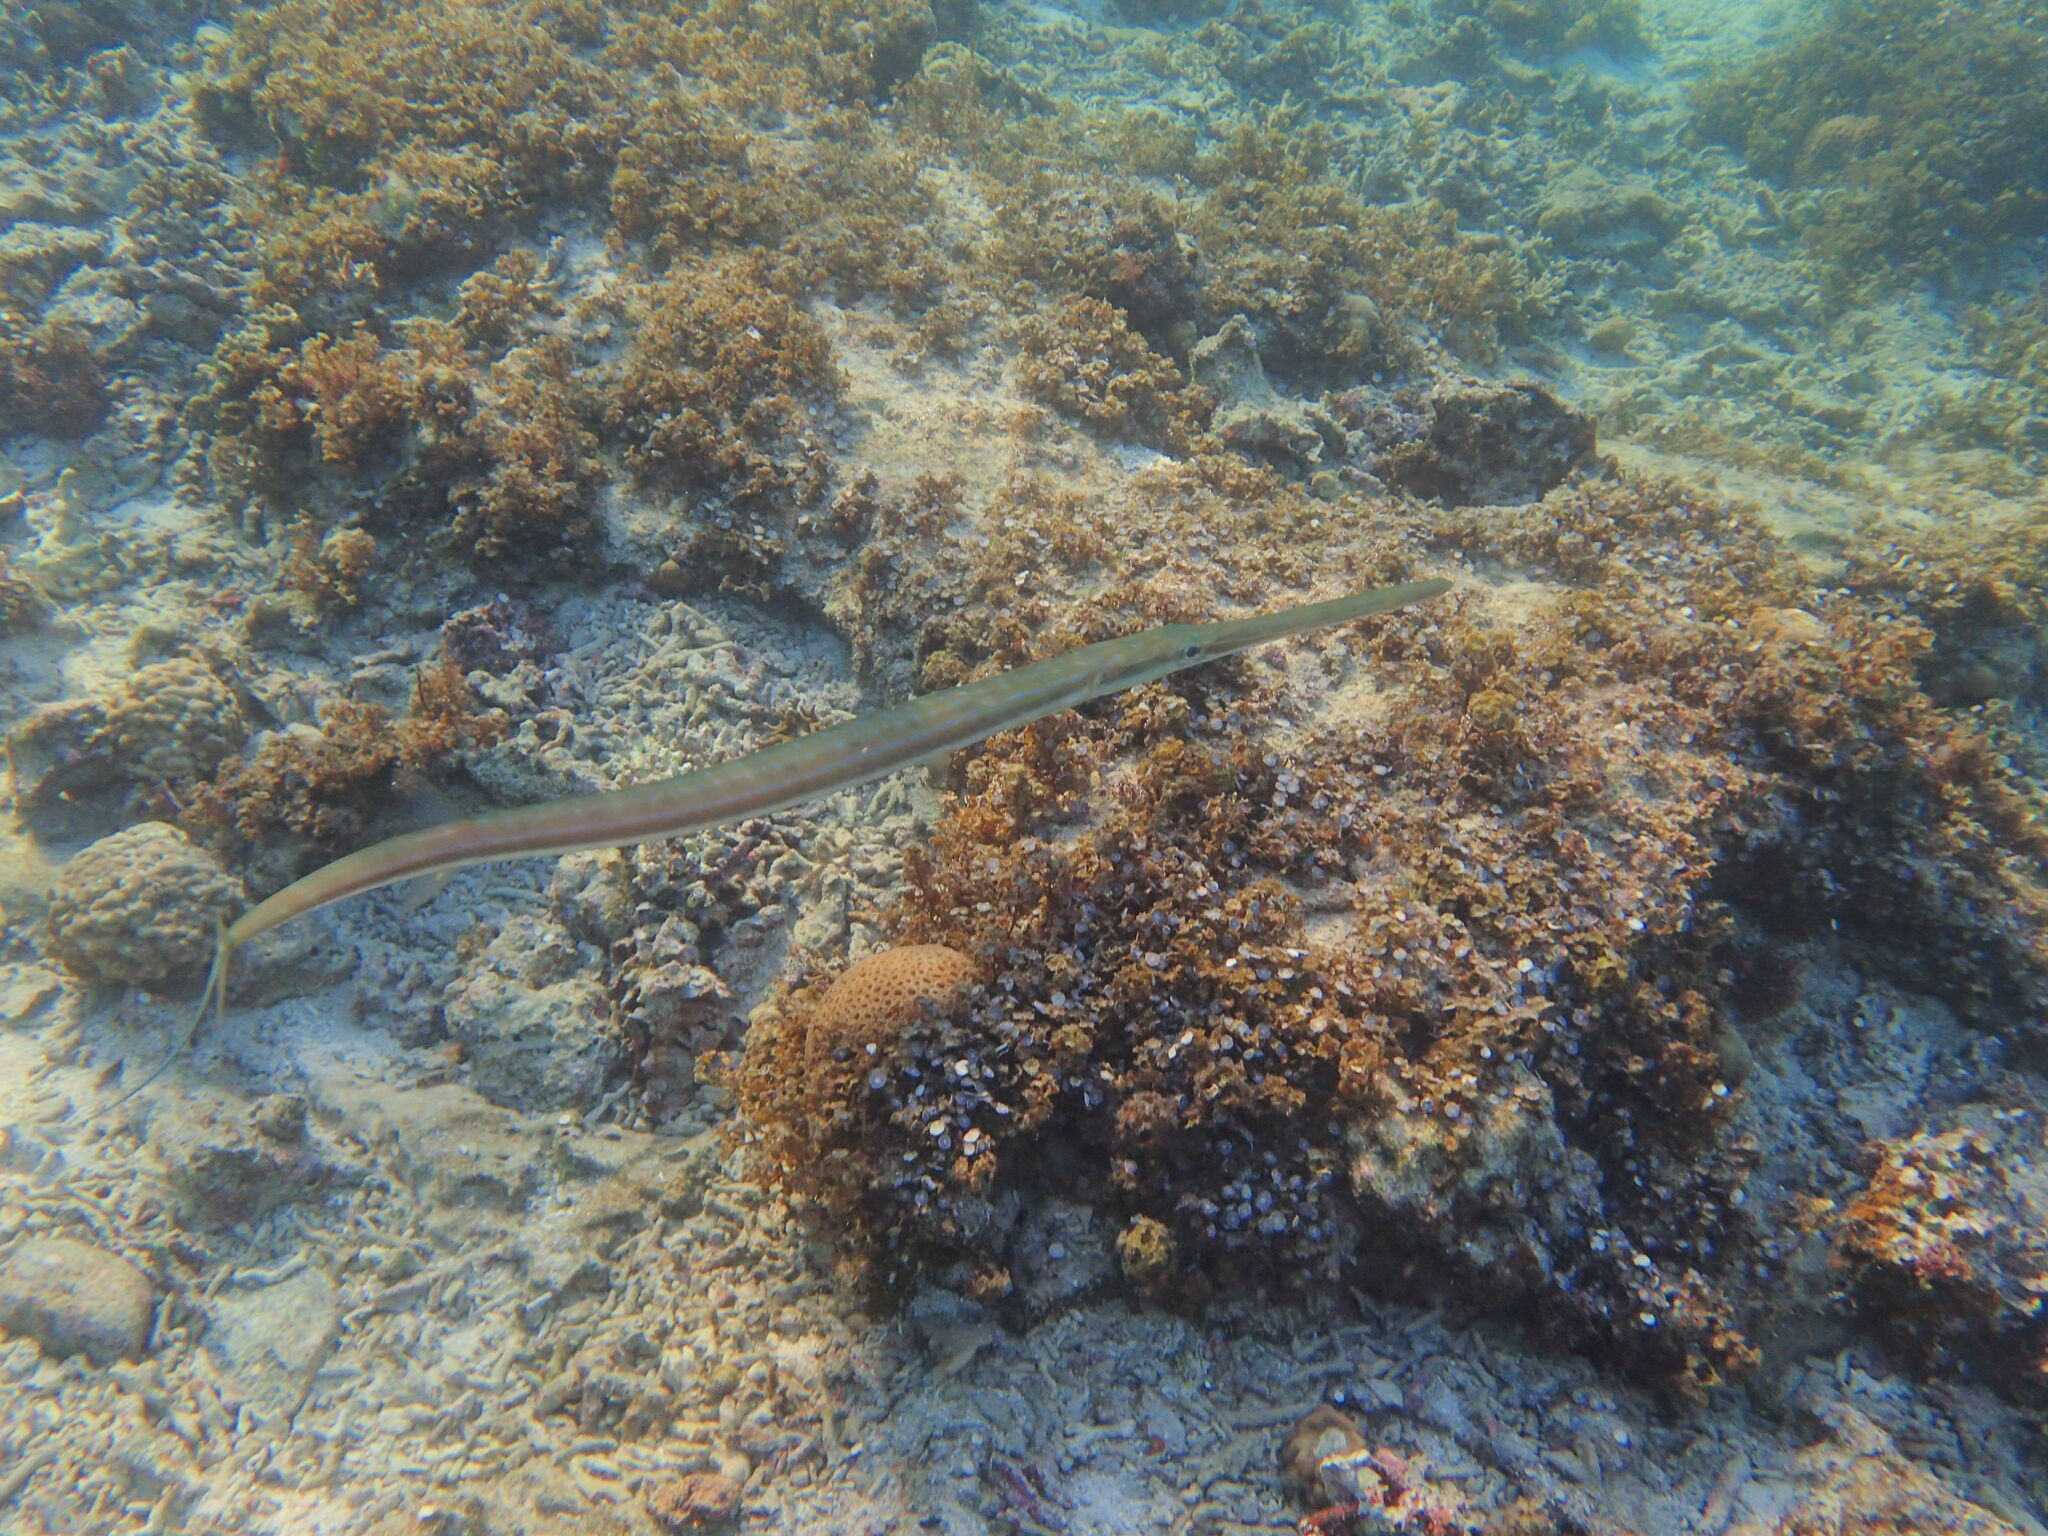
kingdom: Animalia
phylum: Chordata
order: Syngnathiformes
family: Fistulariidae
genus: Fistularia
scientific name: Fistularia commersonii
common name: Bluespotted cornetfish
